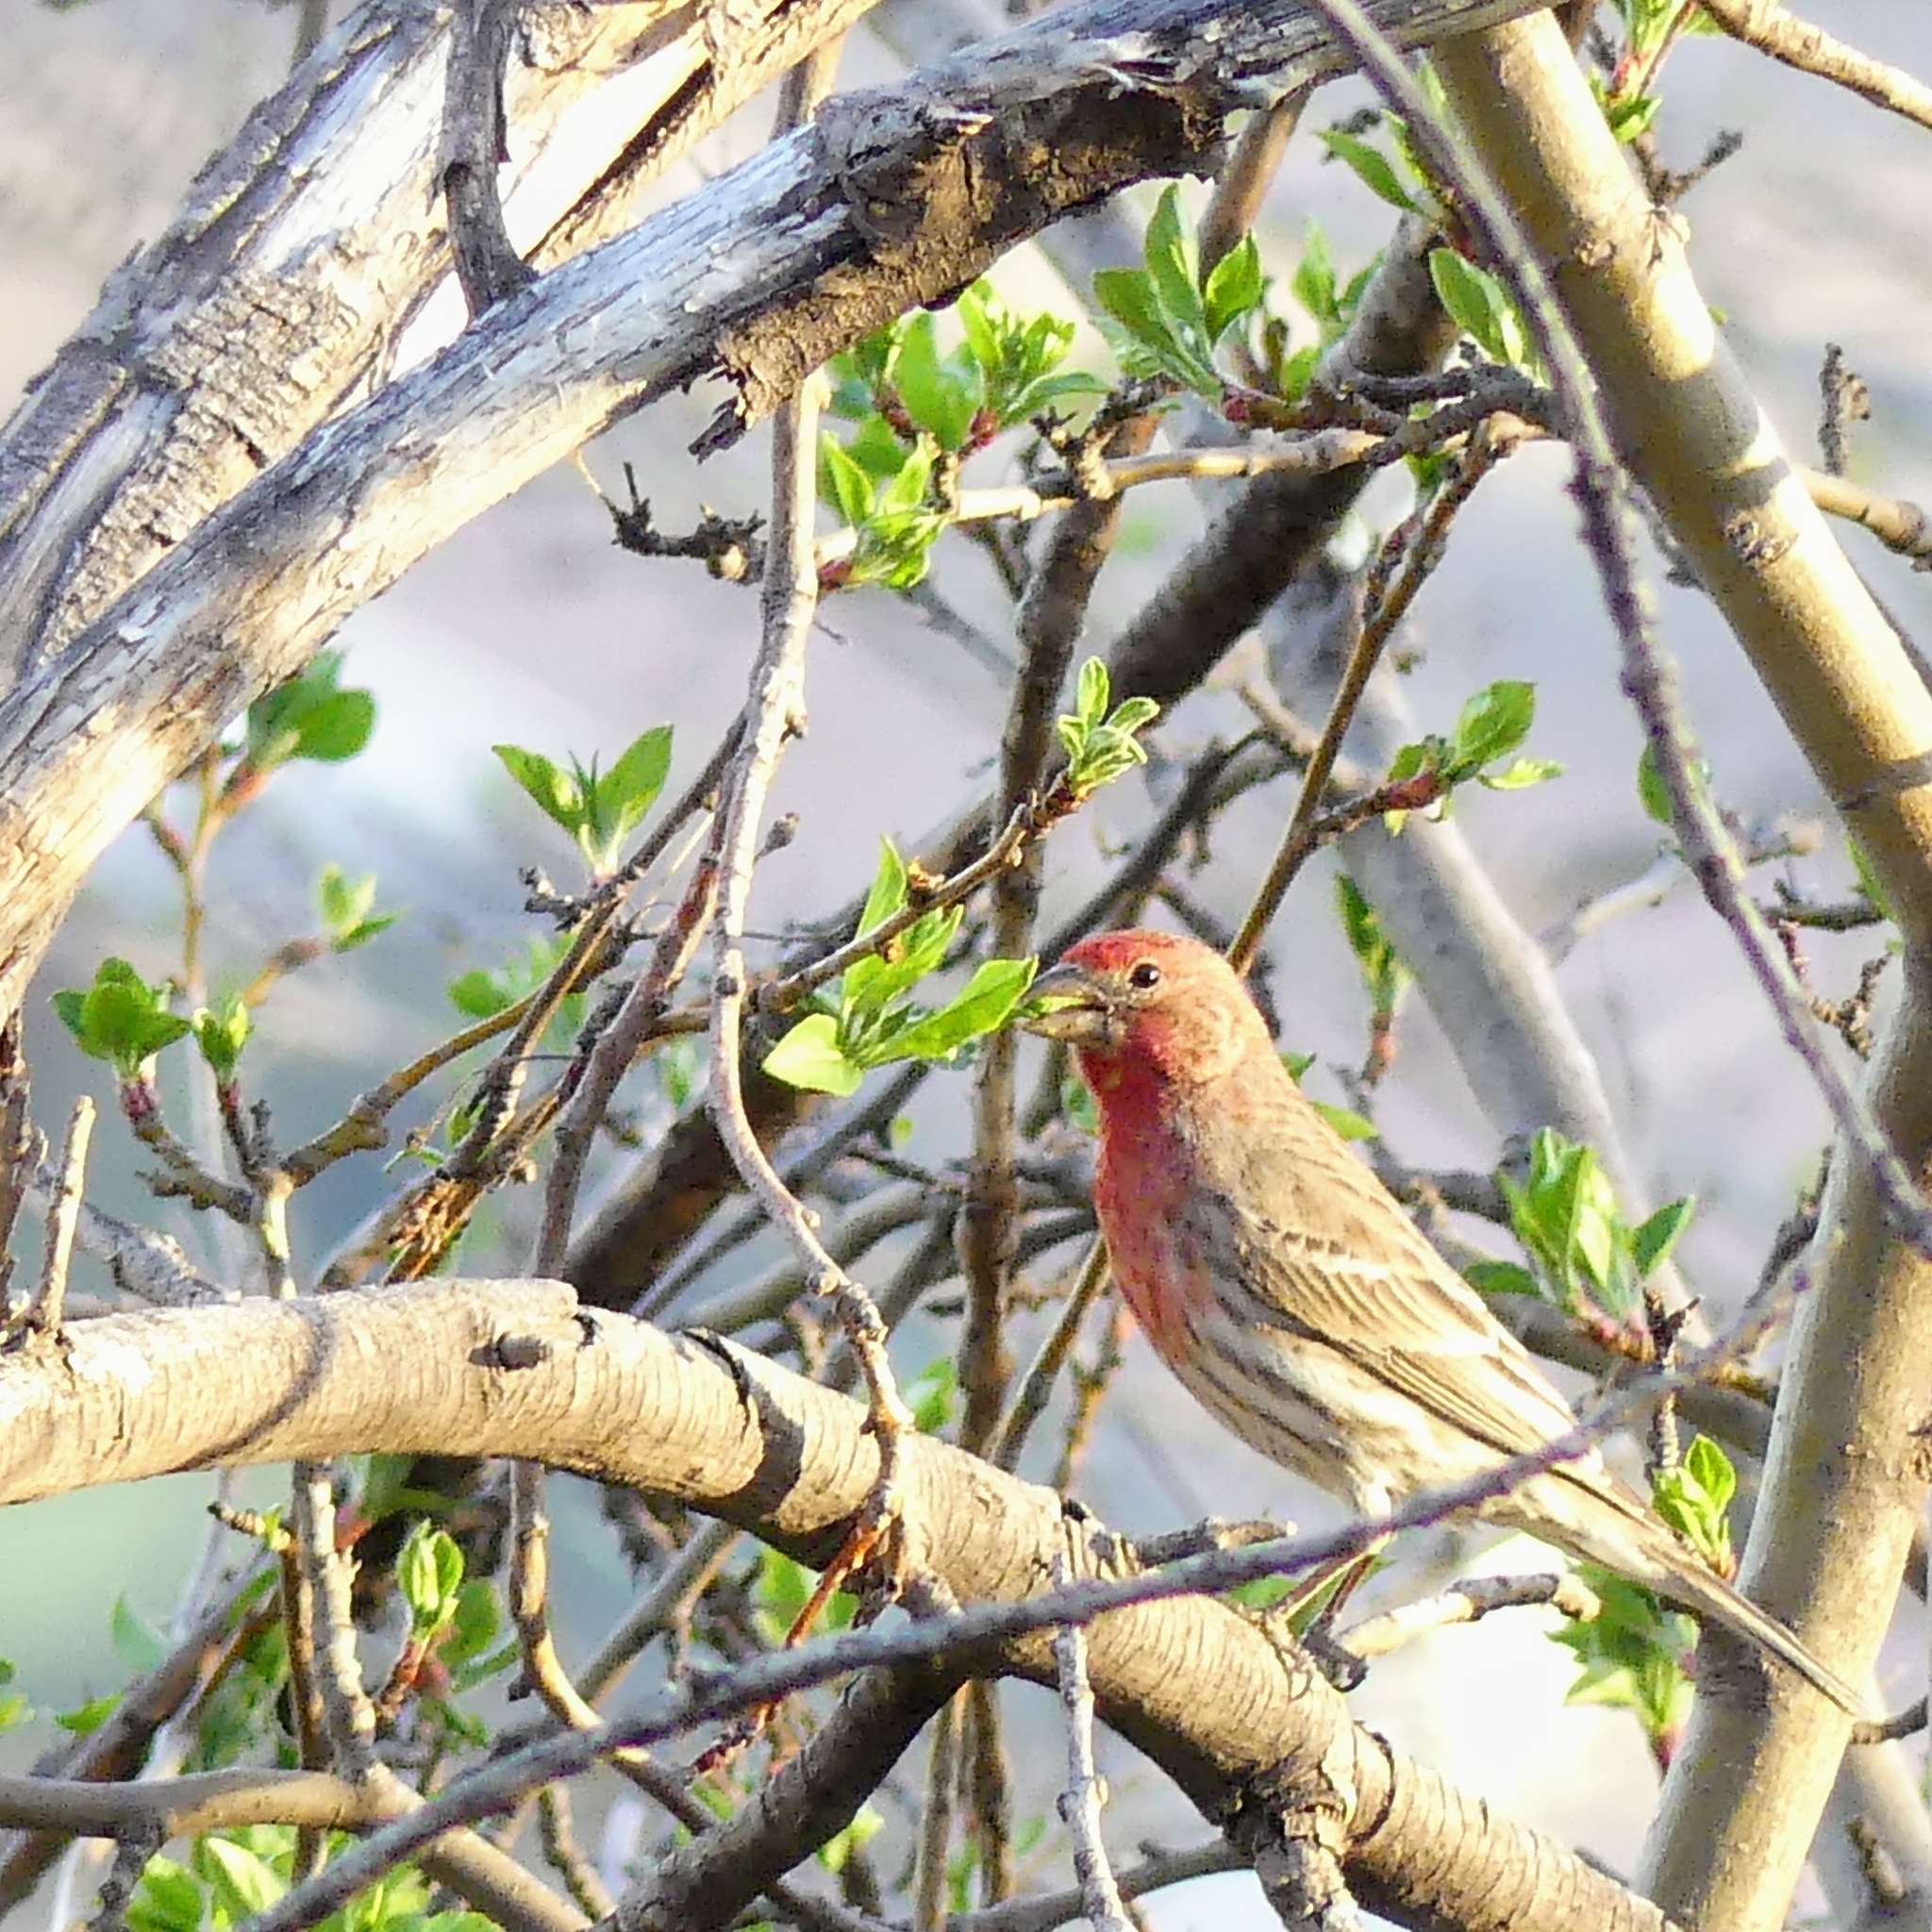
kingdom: Animalia
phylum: Chordata
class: Aves
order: Passeriformes
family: Fringillidae
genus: Haemorhous
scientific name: Haemorhous mexicanus
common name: House finch
